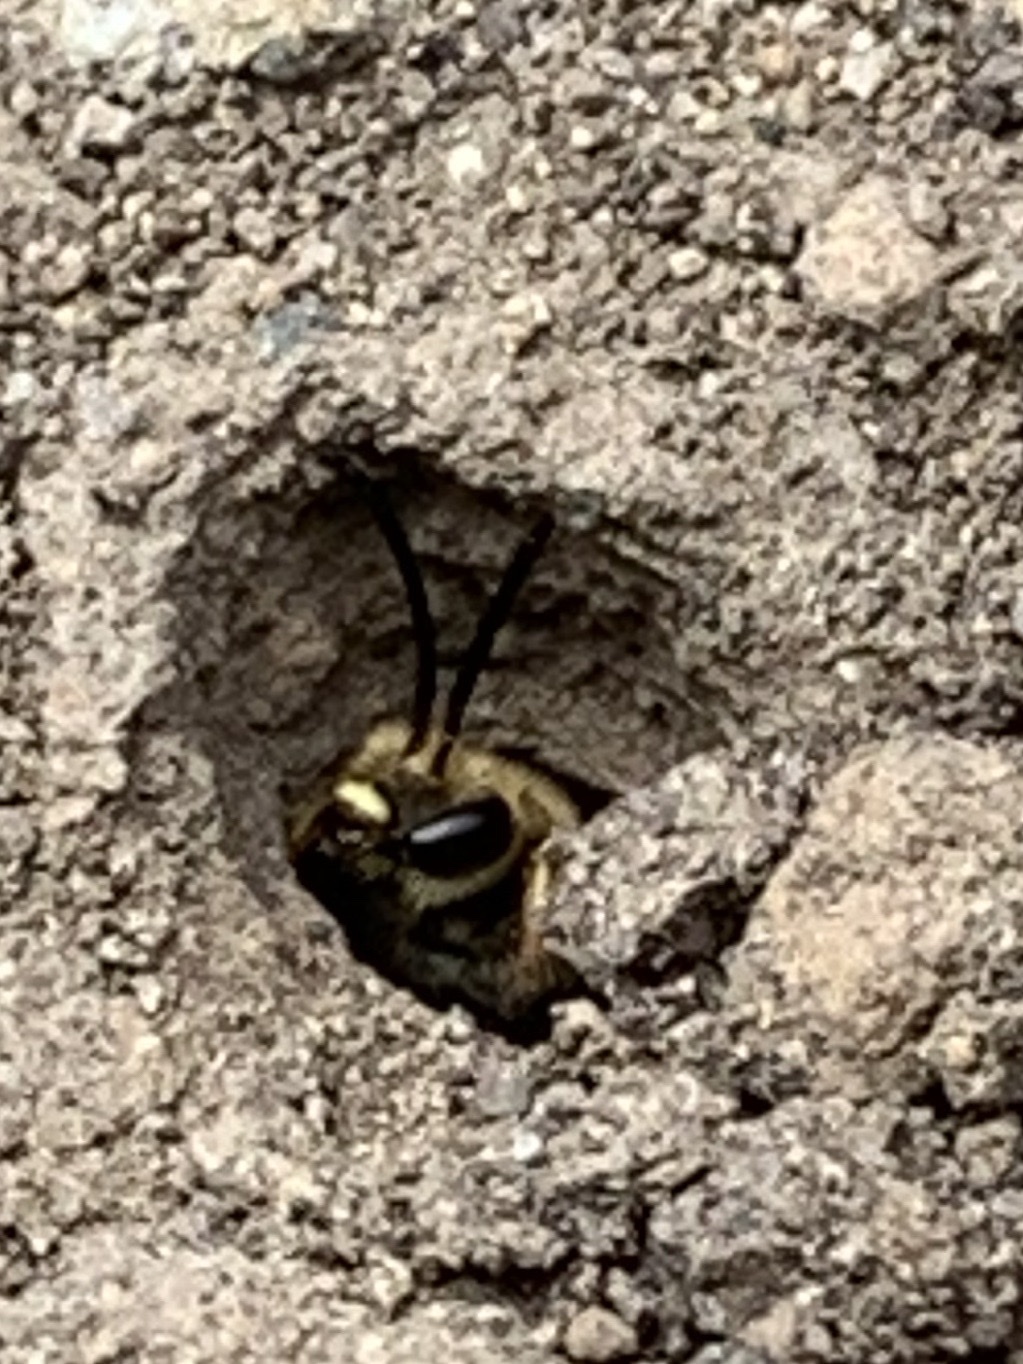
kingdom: Animalia
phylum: Arthropoda
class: Insecta
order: Hymenoptera
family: Halictidae
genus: Halictus
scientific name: Halictus rubicundus
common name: Orange-legged furrow bee
